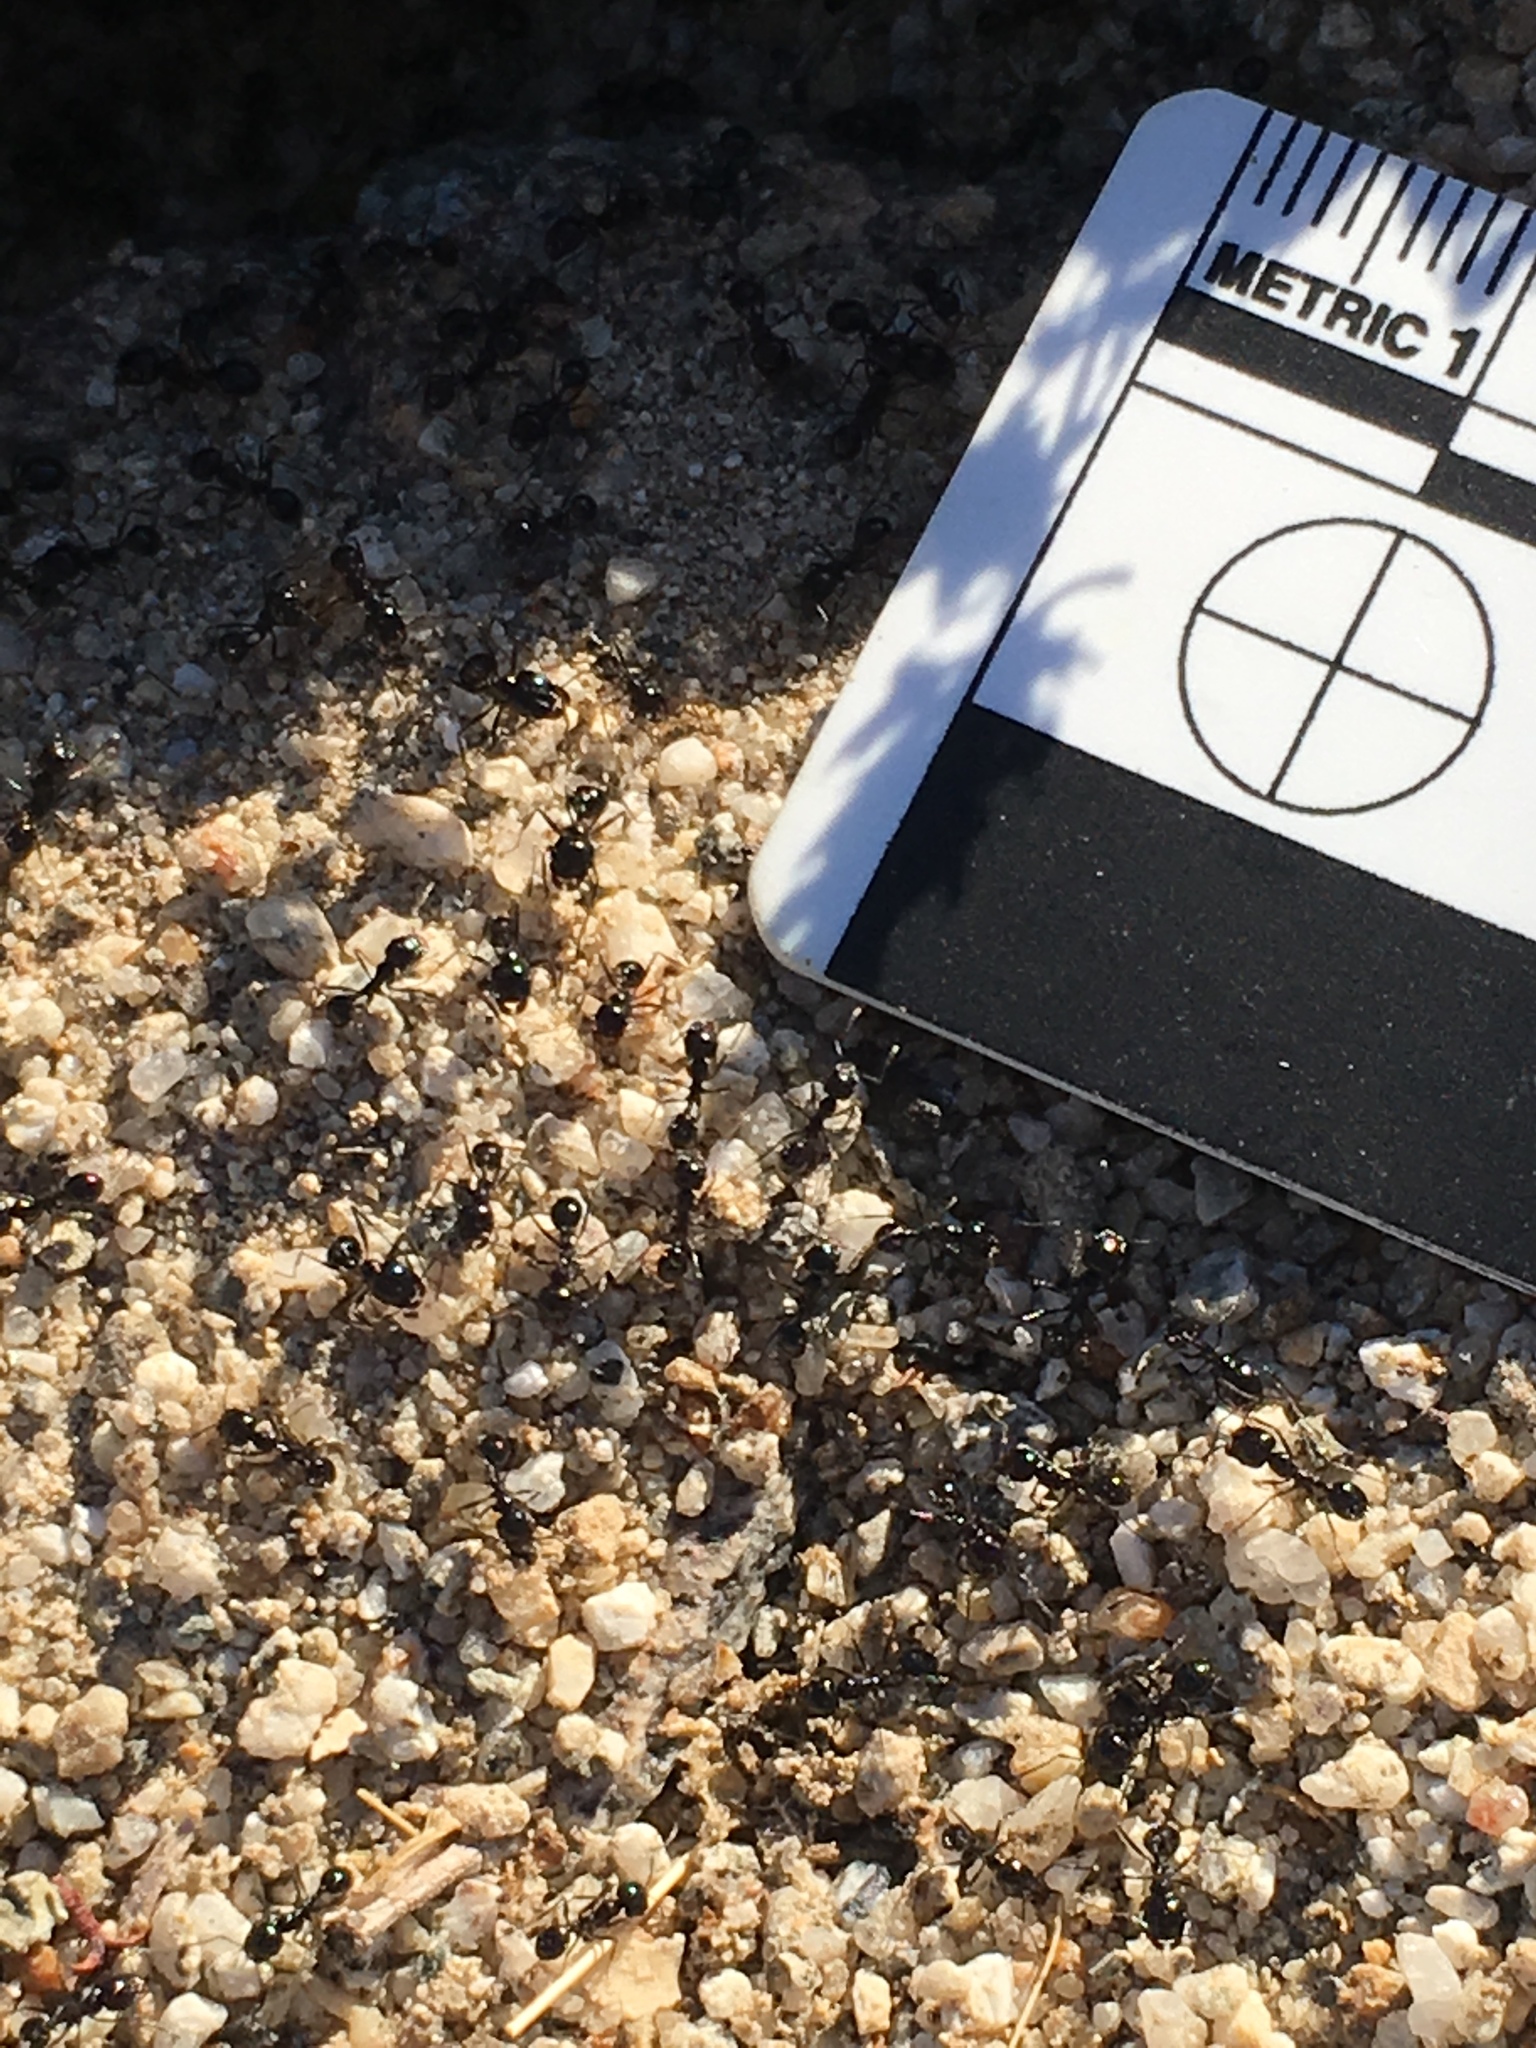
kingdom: Animalia
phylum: Arthropoda
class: Insecta
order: Hymenoptera
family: Formicidae
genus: Messor
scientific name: Messor pergandei
